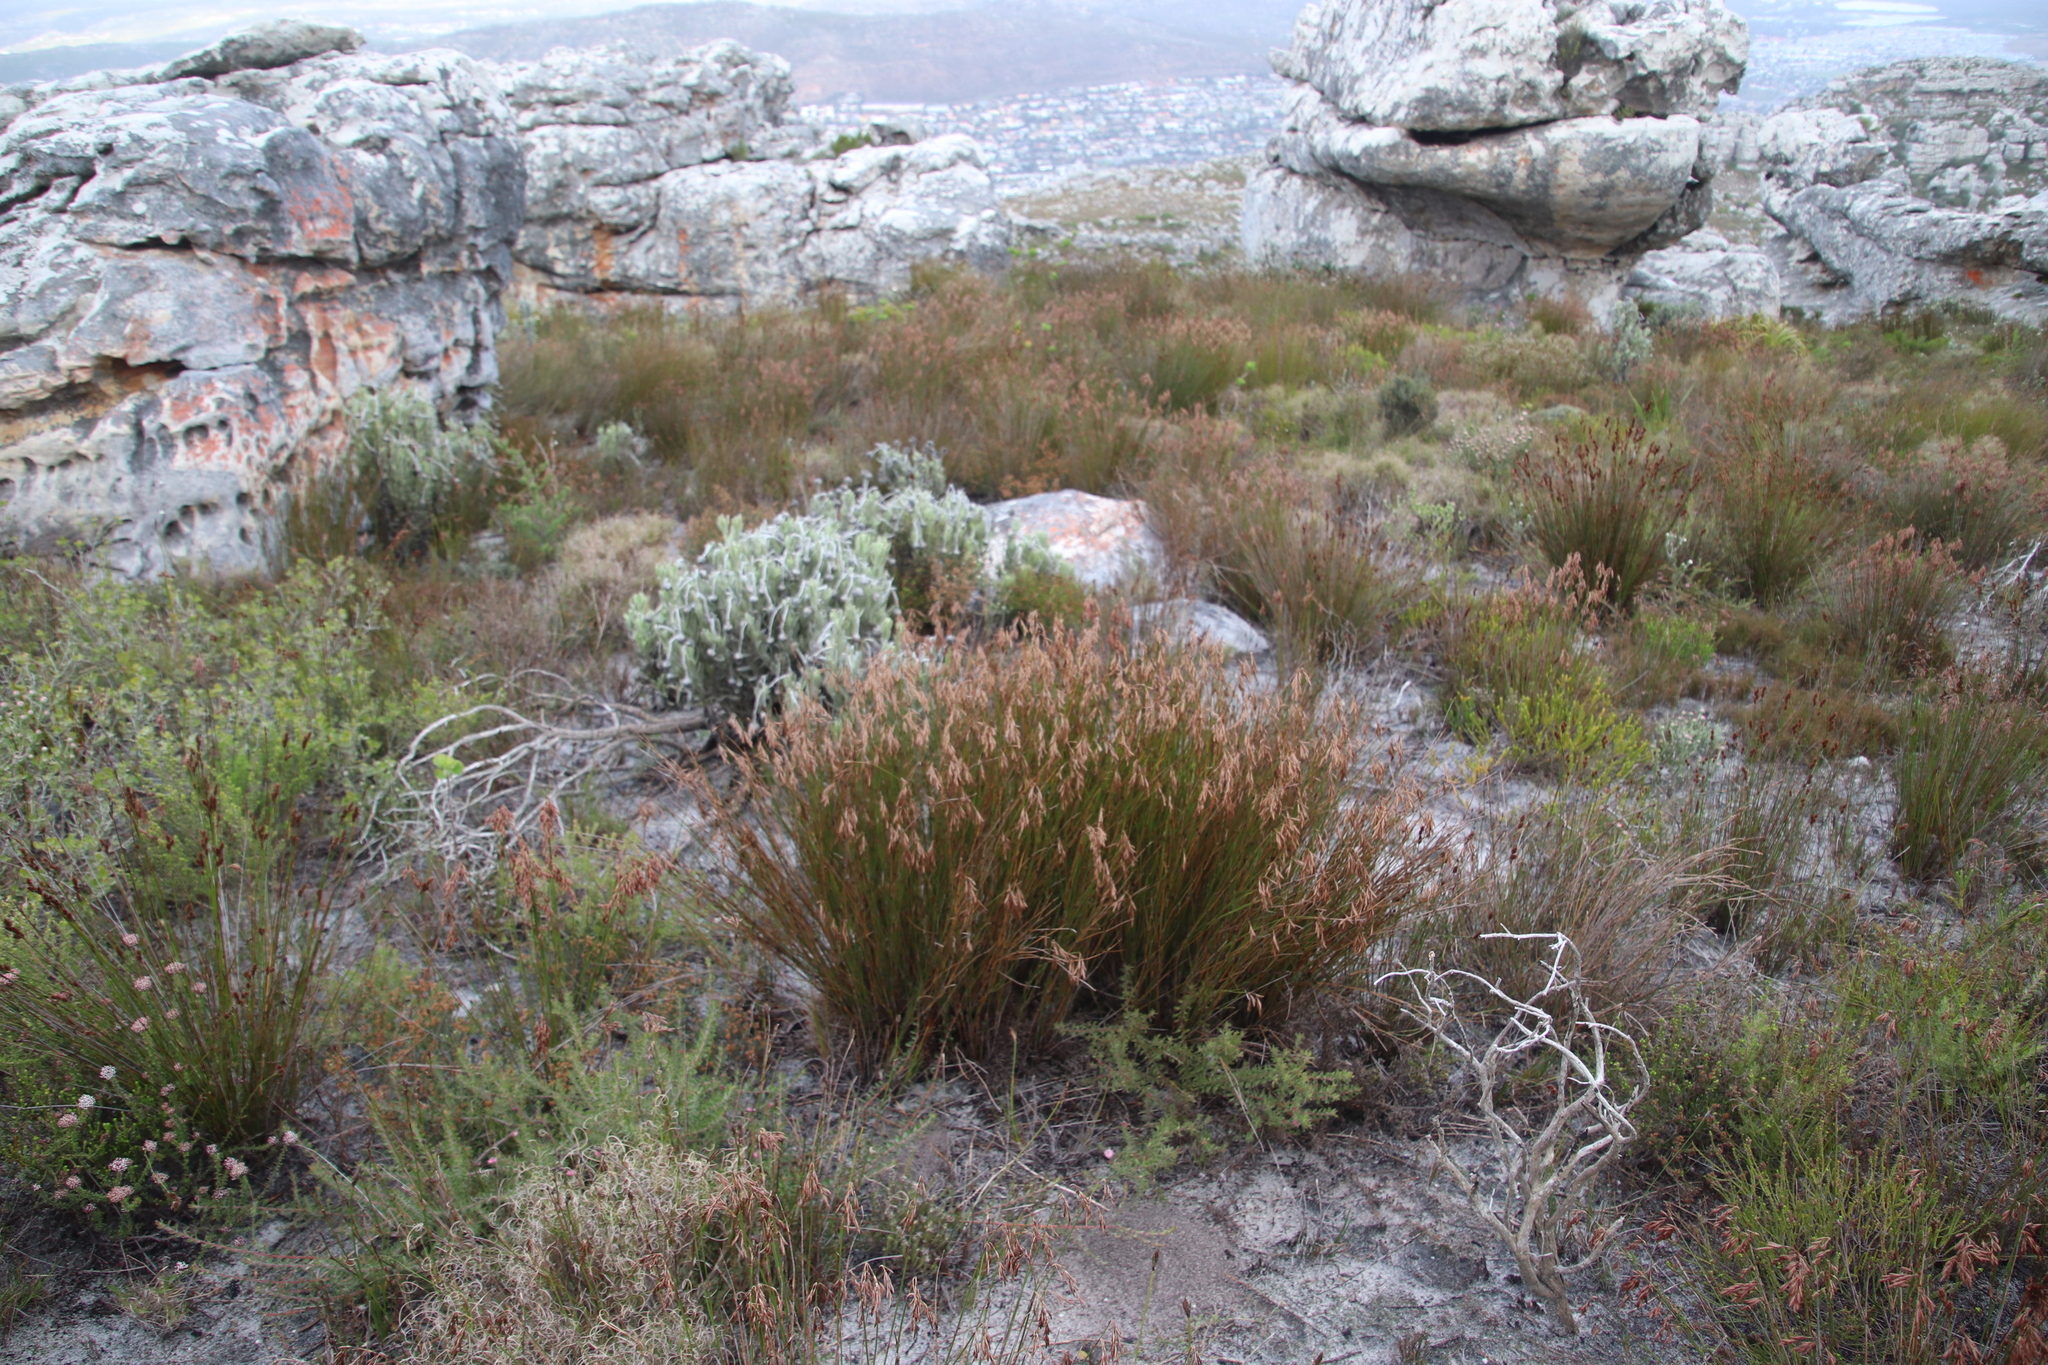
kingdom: Plantae
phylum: Tracheophyta
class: Liliopsida
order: Poales
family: Restionaceae
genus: Thamnochortus
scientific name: Thamnochortus gracilis
